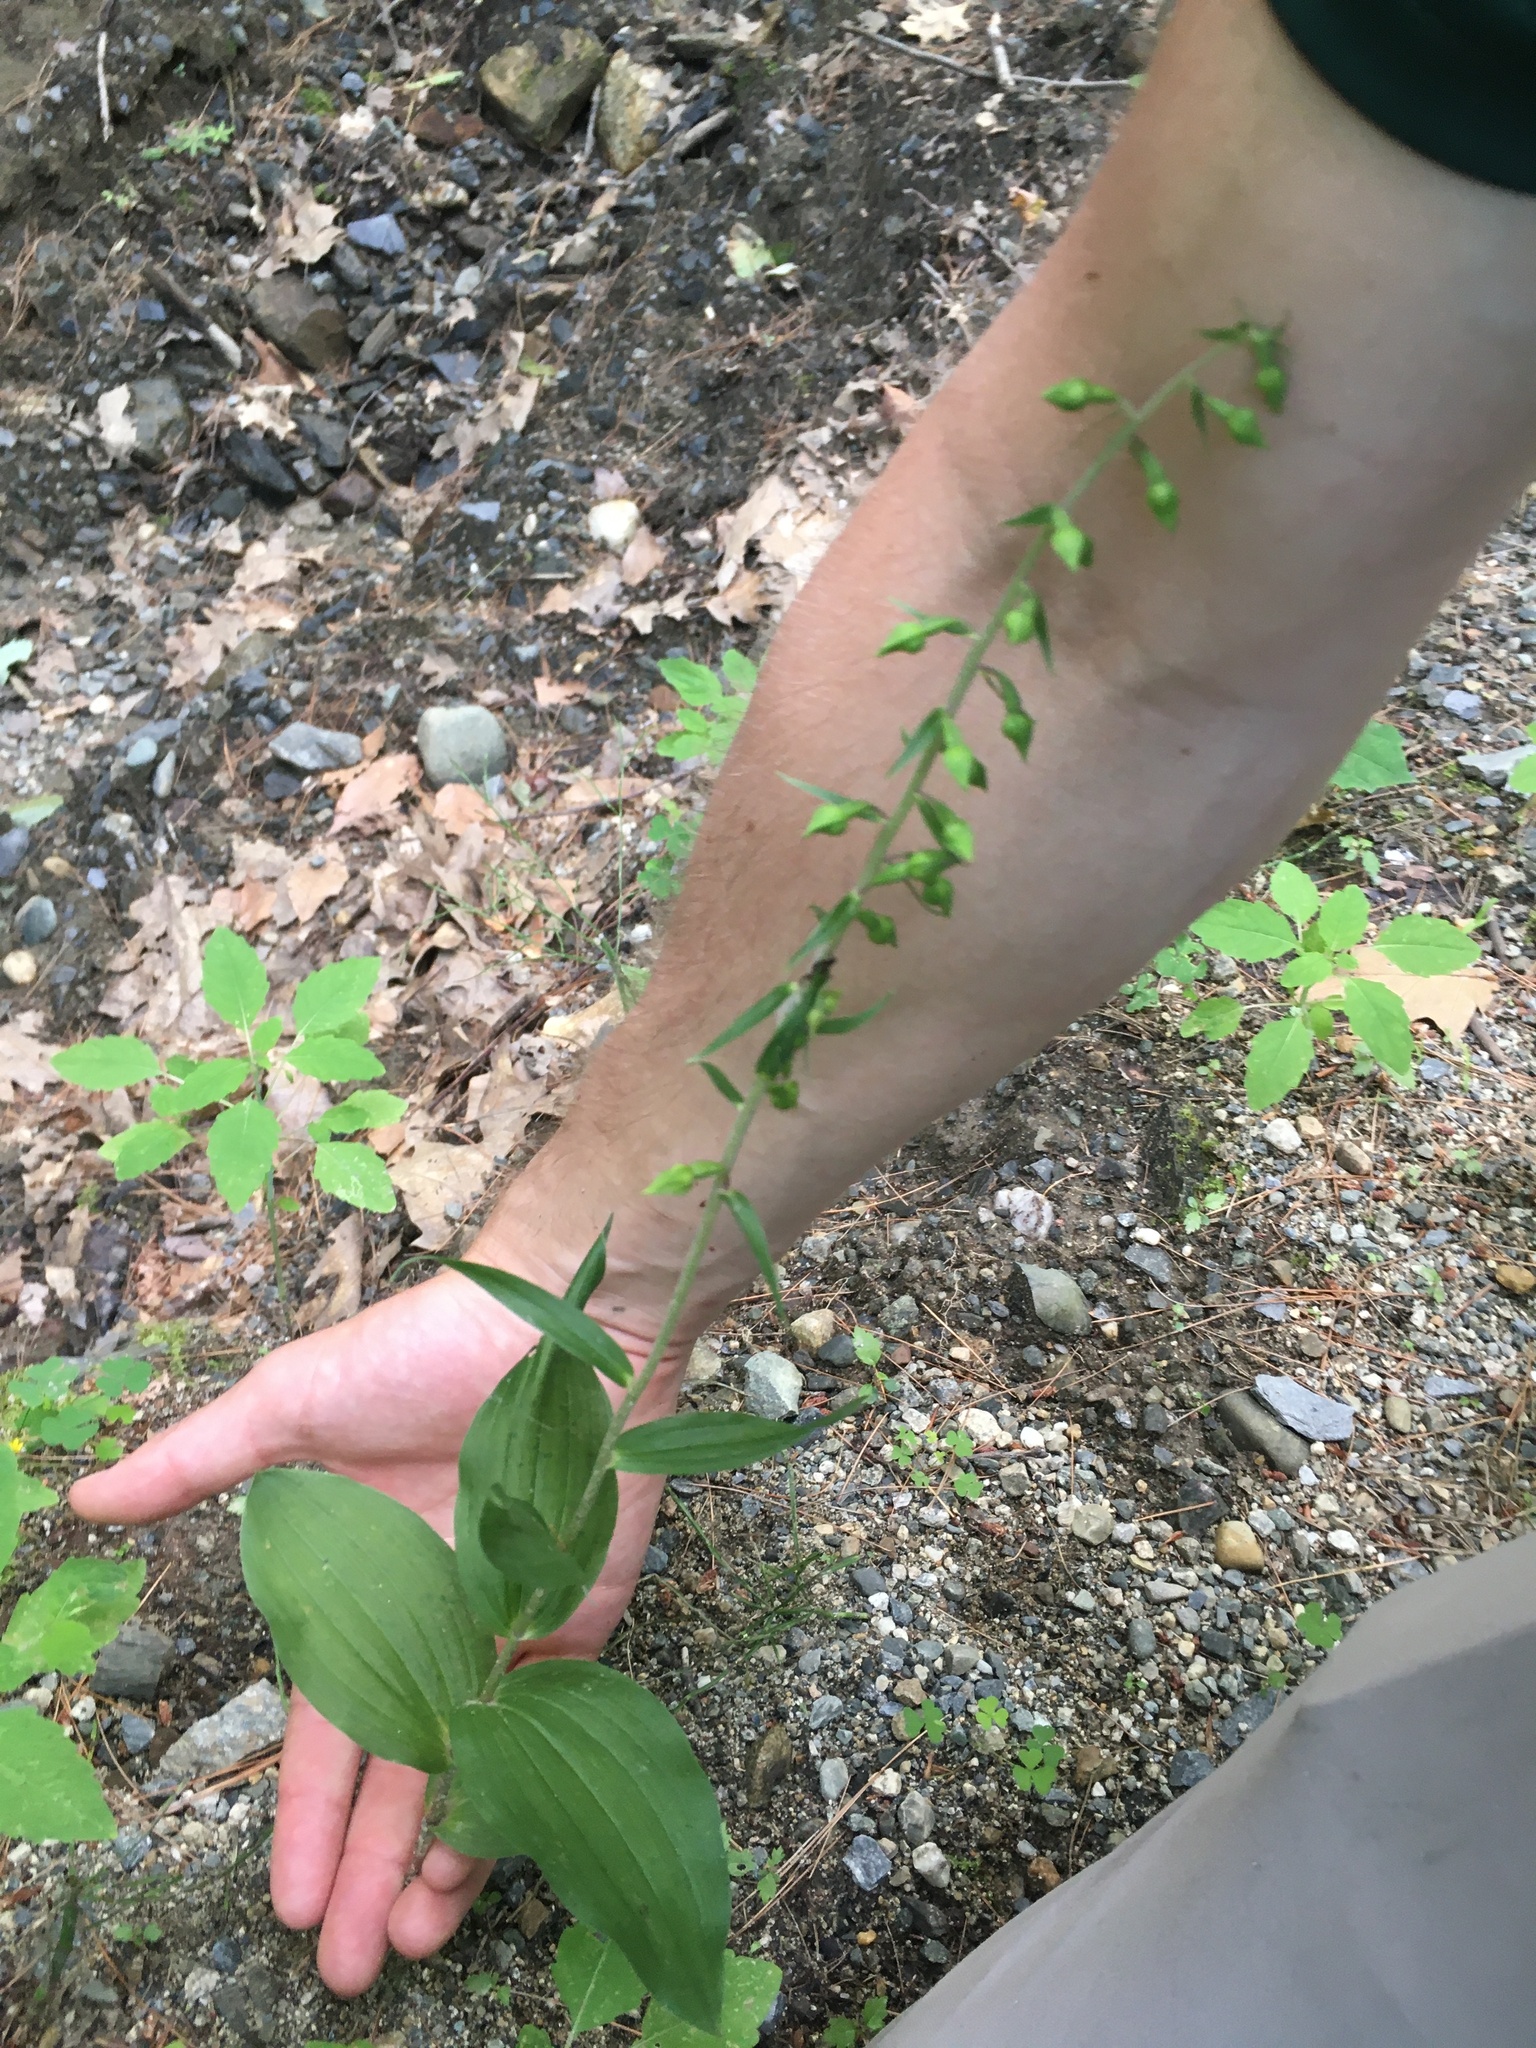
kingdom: Plantae
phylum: Tracheophyta
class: Liliopsida
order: Asparagales
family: Orchidaceae
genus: Epipactis
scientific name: Epipactis helleborine
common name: Broad-leaved helleborine
